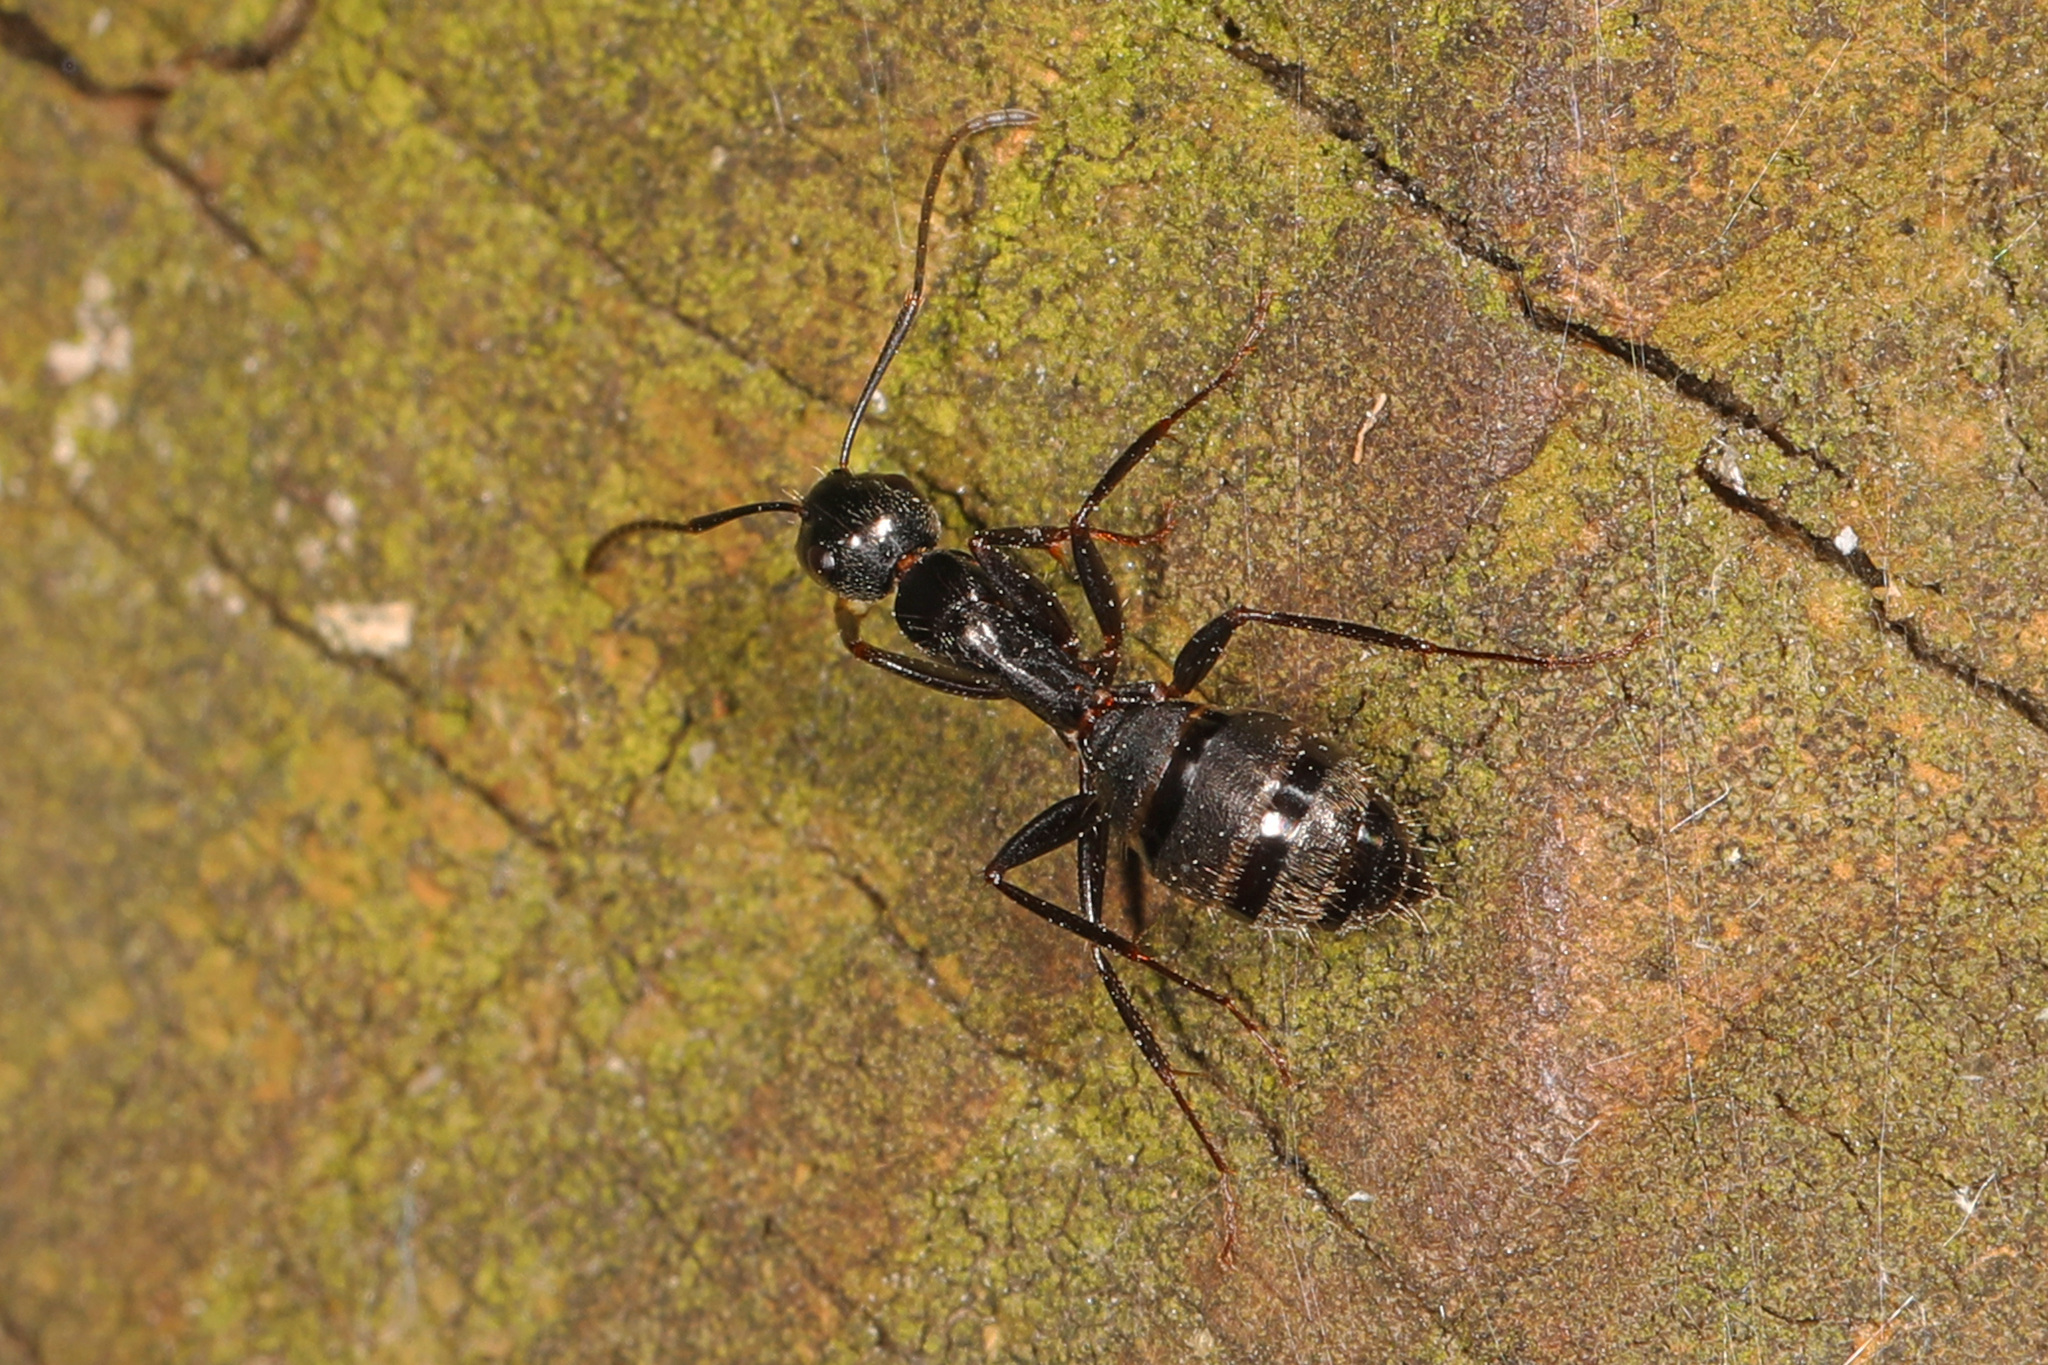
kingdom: Animalia
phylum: Arthropoda
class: Insecta
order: Hymenoptera
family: Formicidae
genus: Camponotus
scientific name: Camponotus pennsylvanicus
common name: Black carpenter ant
